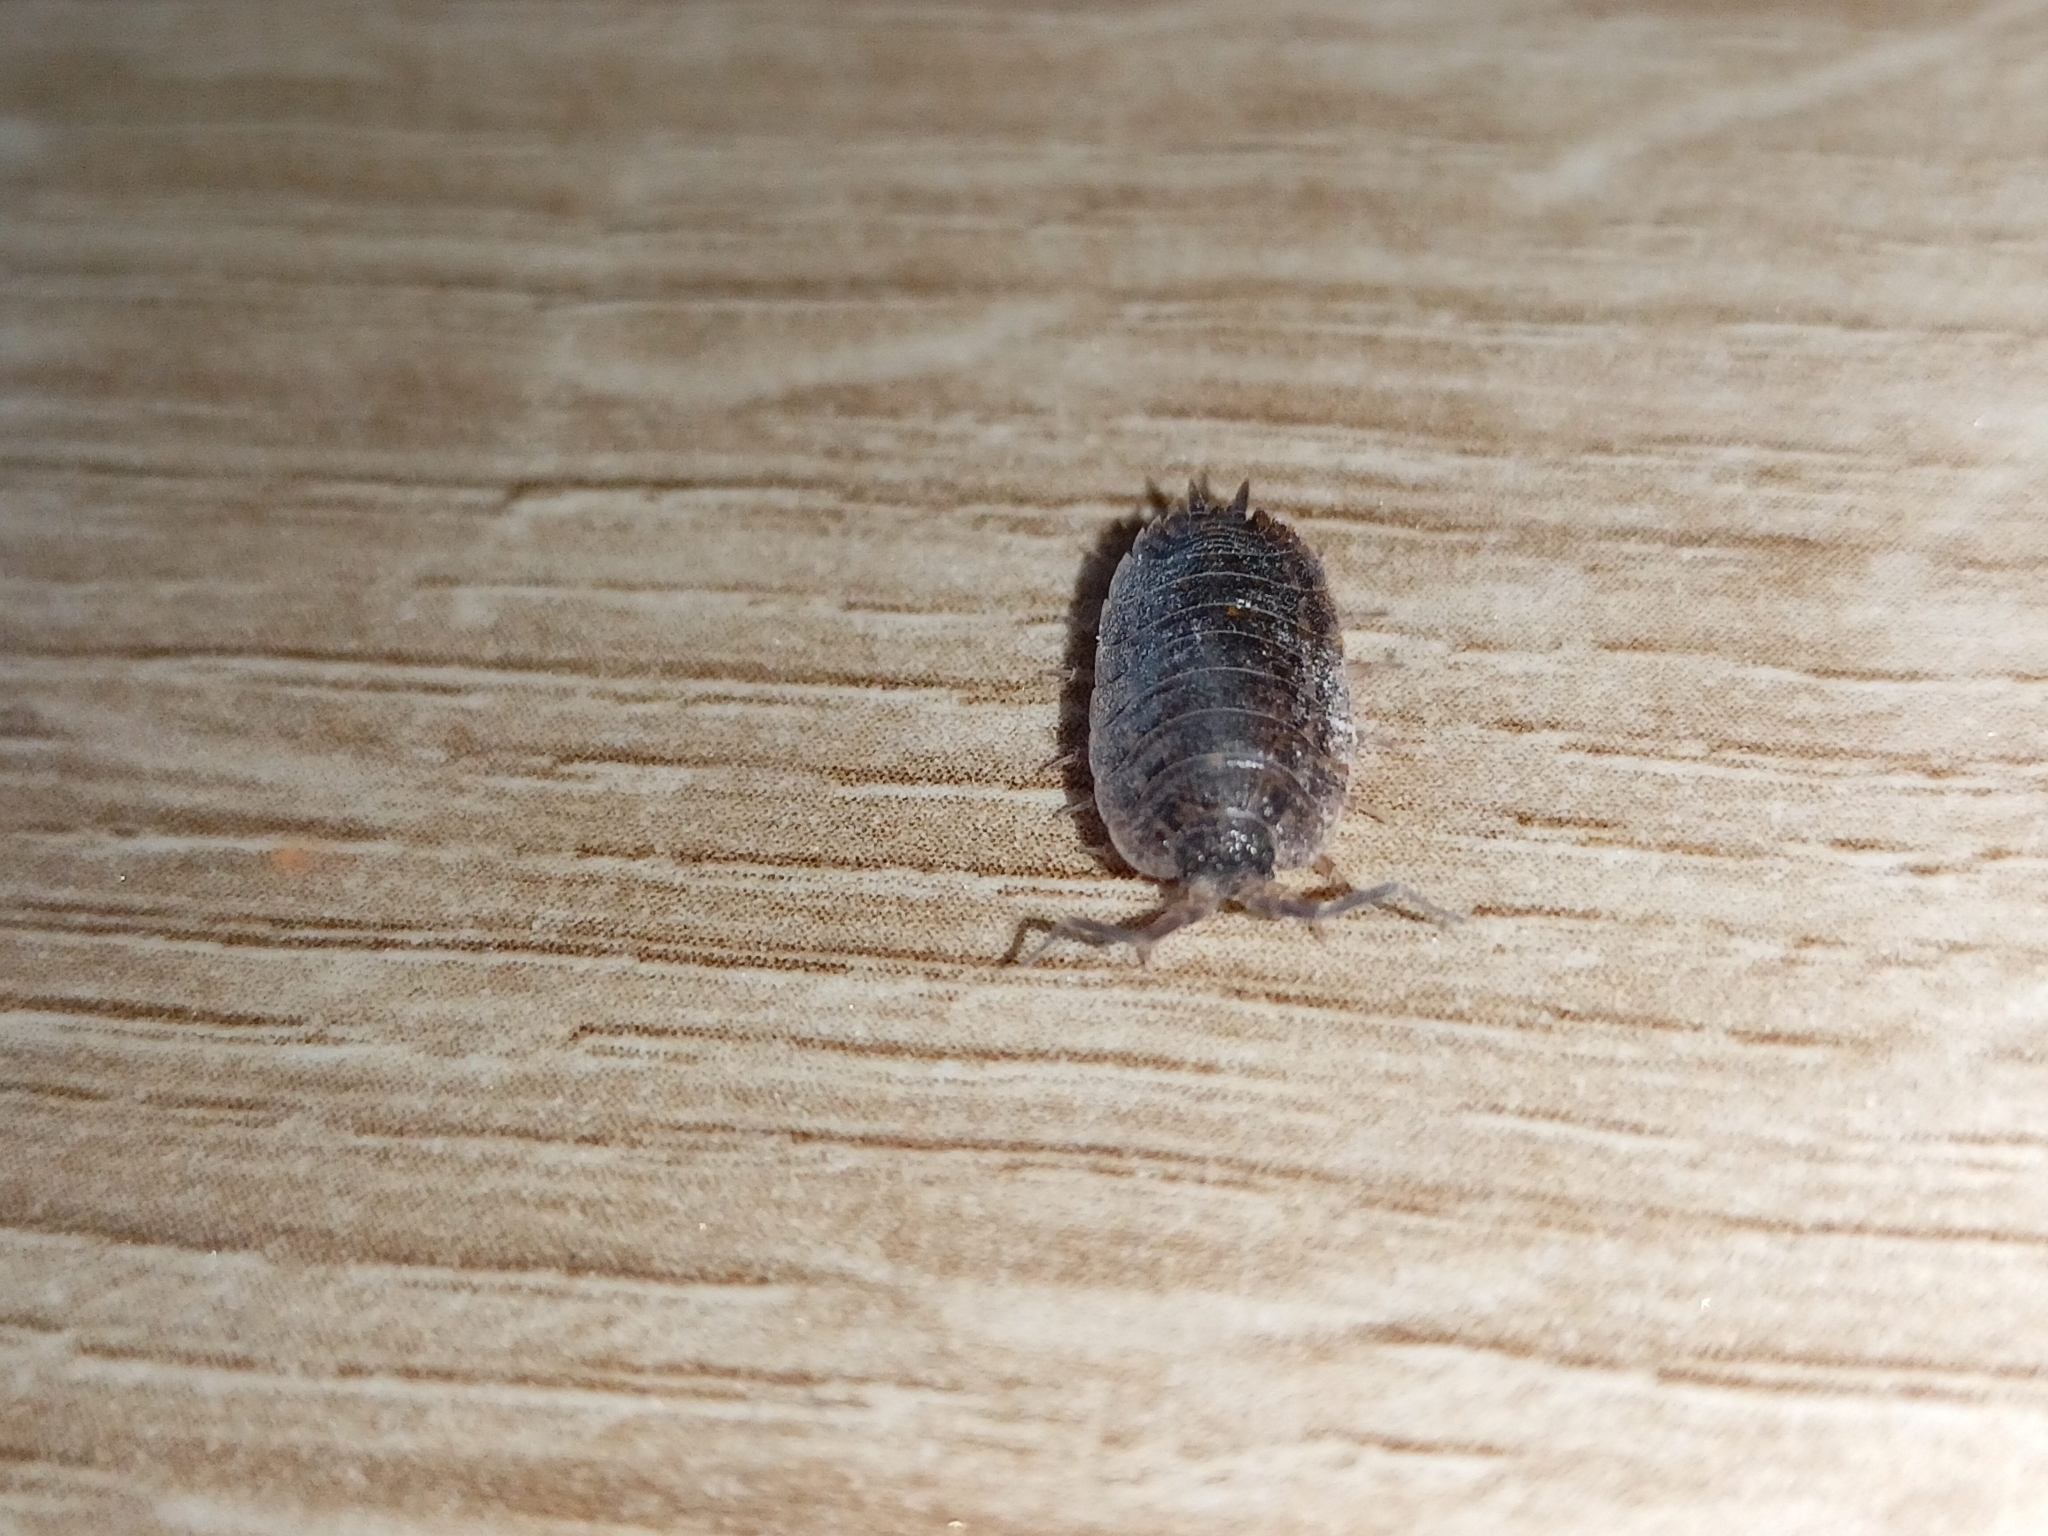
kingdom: Animalia
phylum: Arthropoda
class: Malacostraca
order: Isopoda
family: Trachelipodidae
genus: Trachelipus
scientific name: Trachelipus rathkii
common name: Isopod
